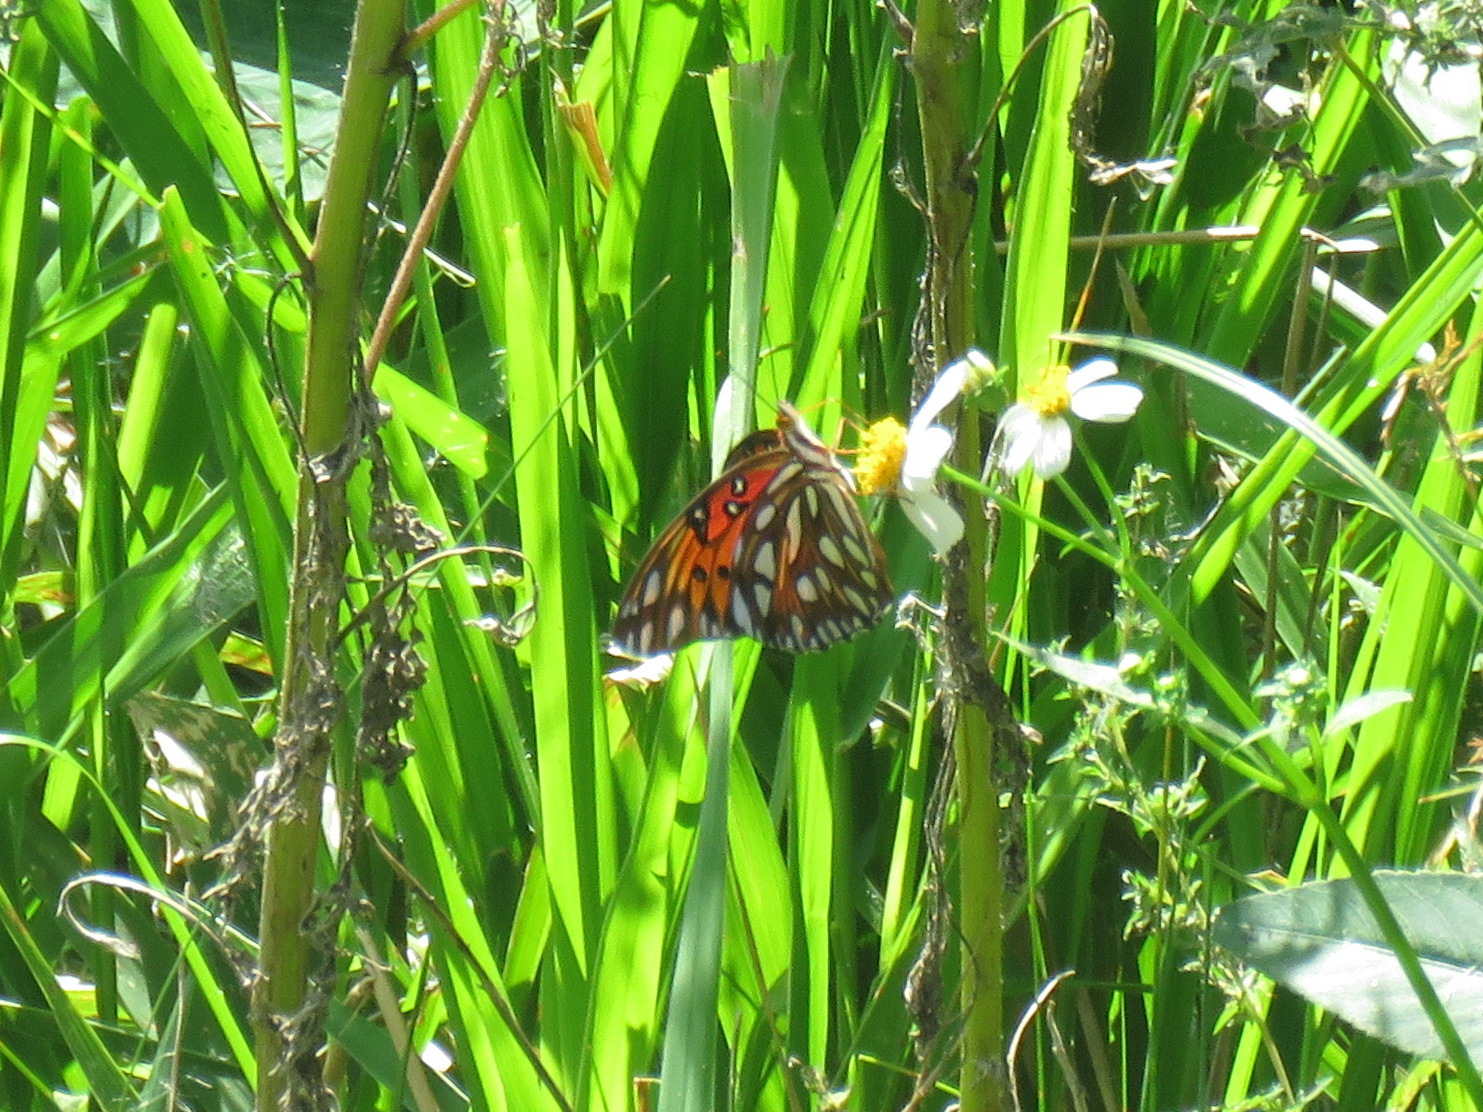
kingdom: Animalia
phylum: Arthropoda
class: Insecta
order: Lepidoptera
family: Nymphalidae
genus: Dione
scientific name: Dione vanillae
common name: Gulf fritillary
